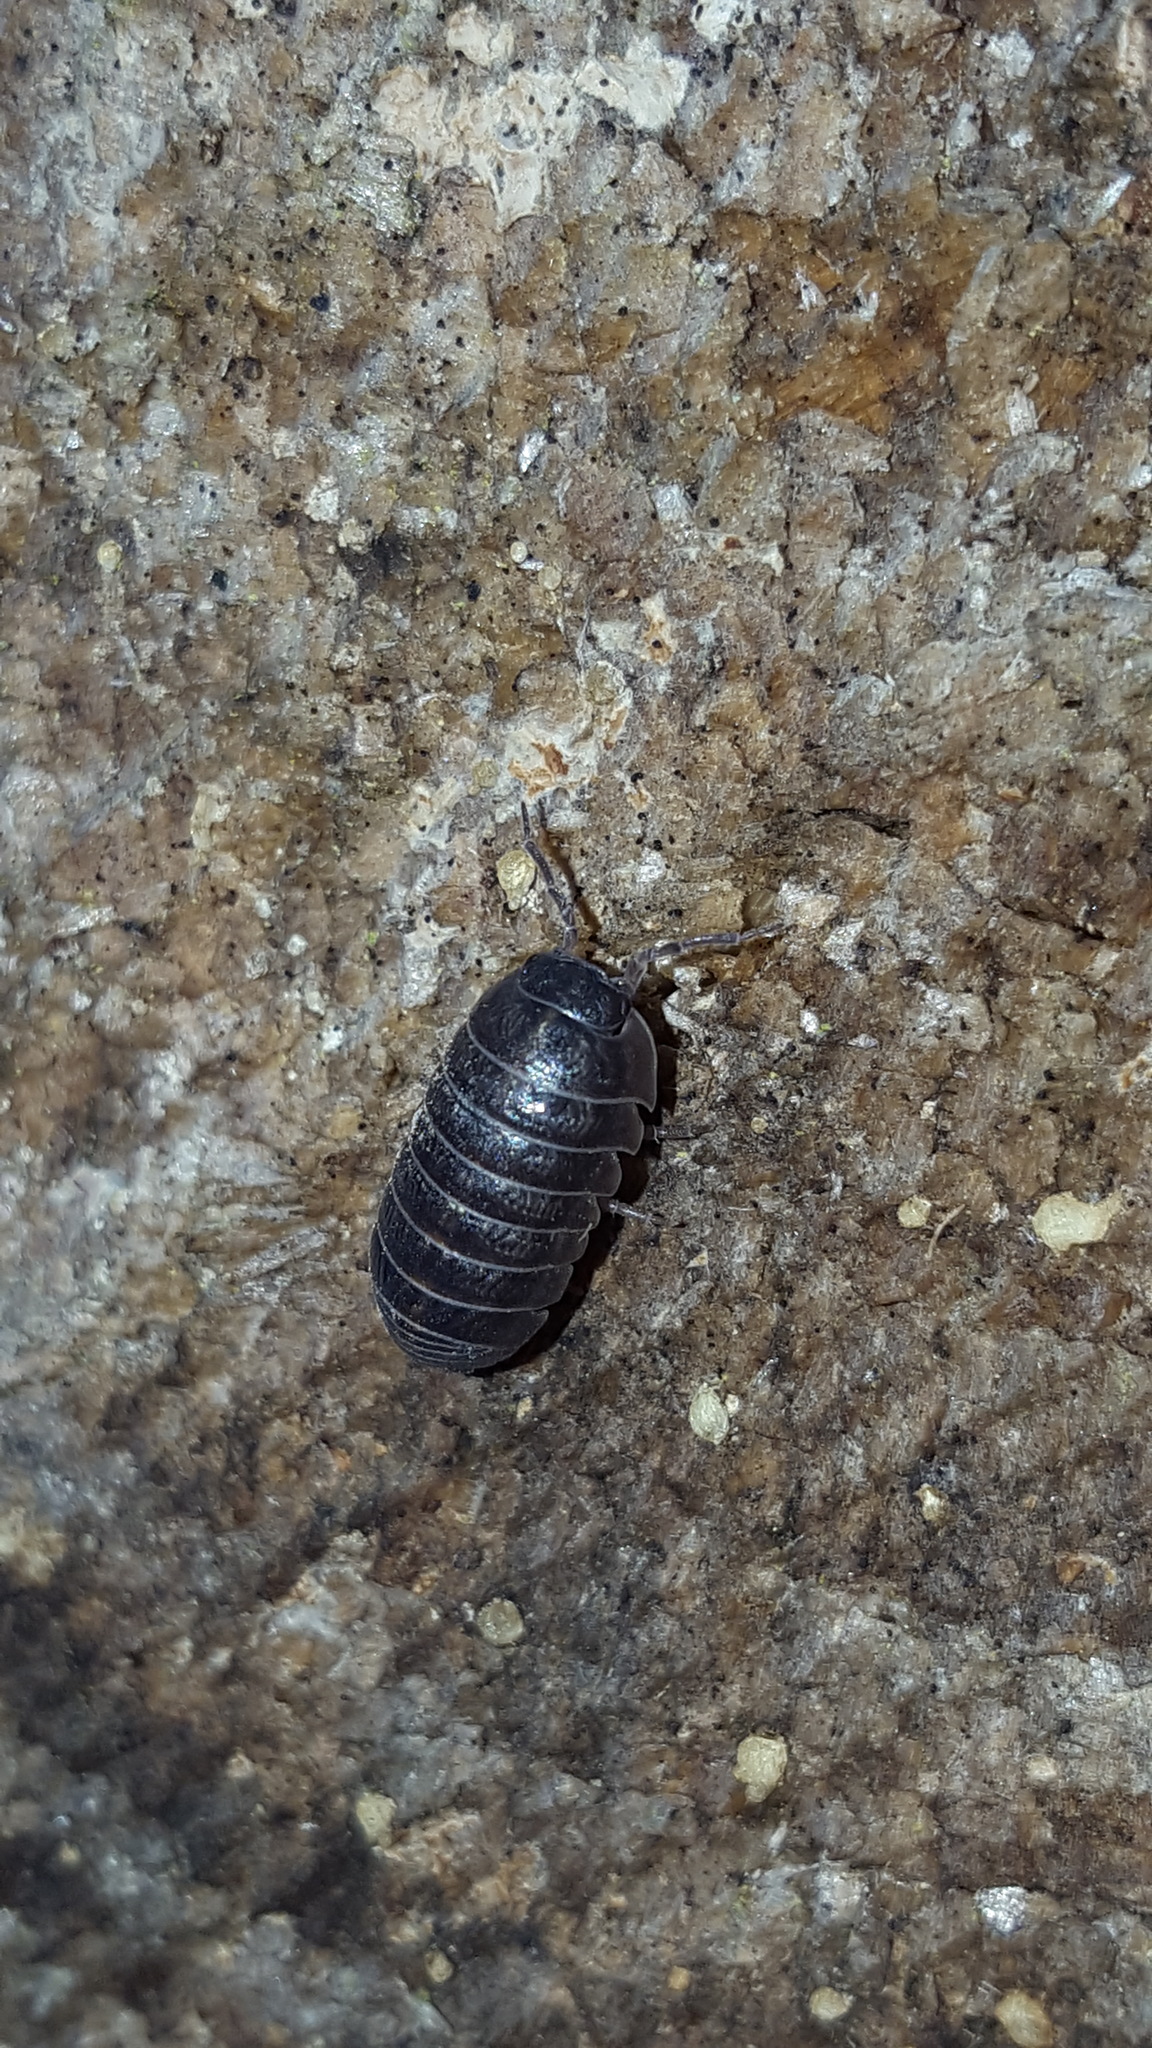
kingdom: Animalia
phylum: Arthropoda
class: Malacostraca
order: Isopoda
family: Armadillidiidae
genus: Armadillidium
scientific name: Armadillidium vulgare
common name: Common pill woodlouse
